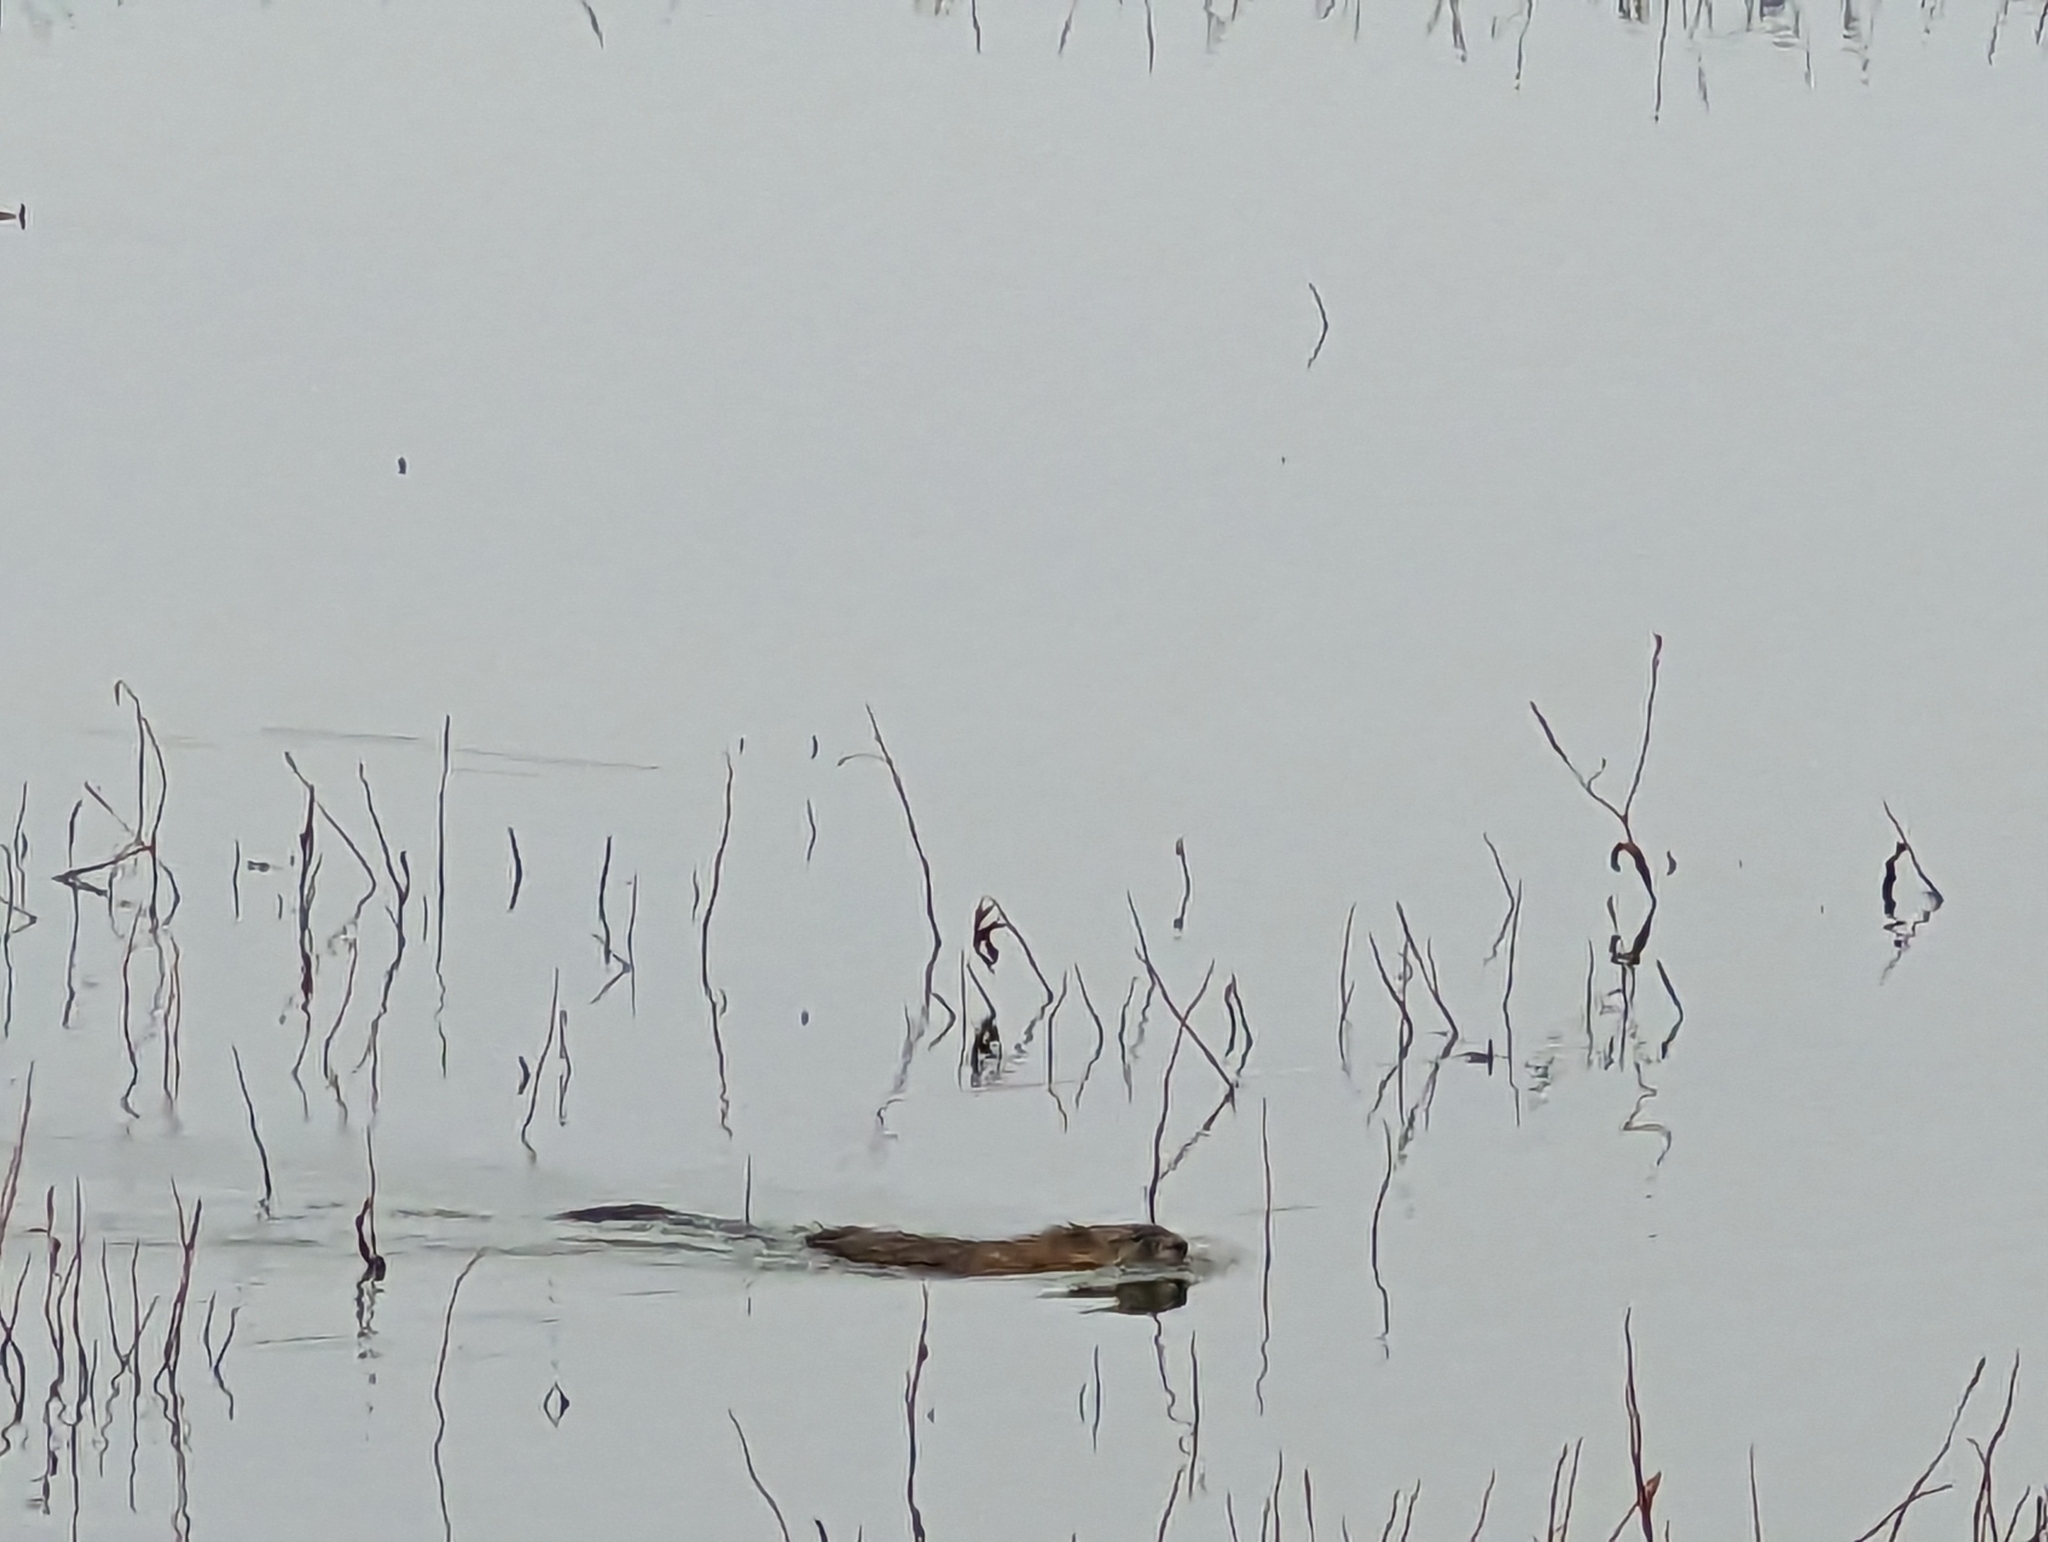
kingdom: Animalia
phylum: Chordata
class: Mammalia
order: Rodentia
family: Cricetidae
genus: Ondatra
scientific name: Ondatra zibethicus
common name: Muskrat
